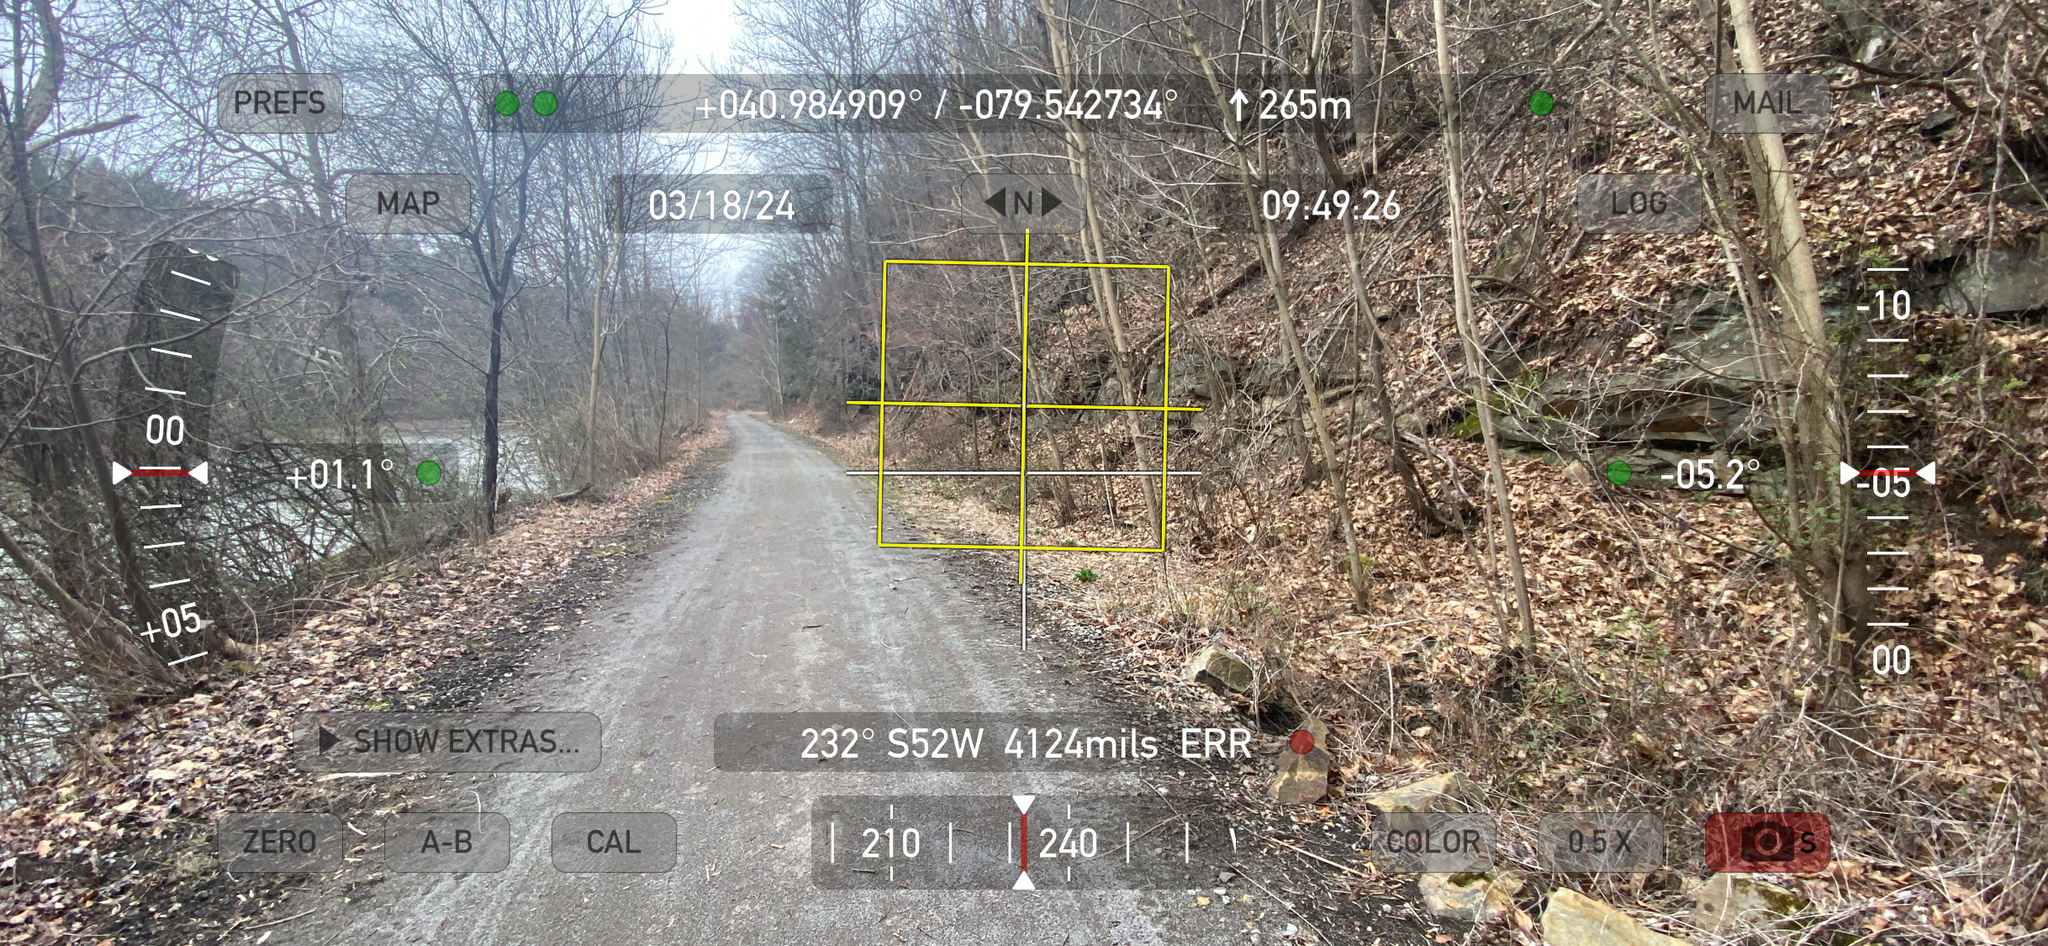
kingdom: Plantae
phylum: Tracheophyta
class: Magnoliopsida
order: Ranunculales
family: Papaveraceae
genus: Corydalis
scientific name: Corydalis flavula
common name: Yellow corydalis
